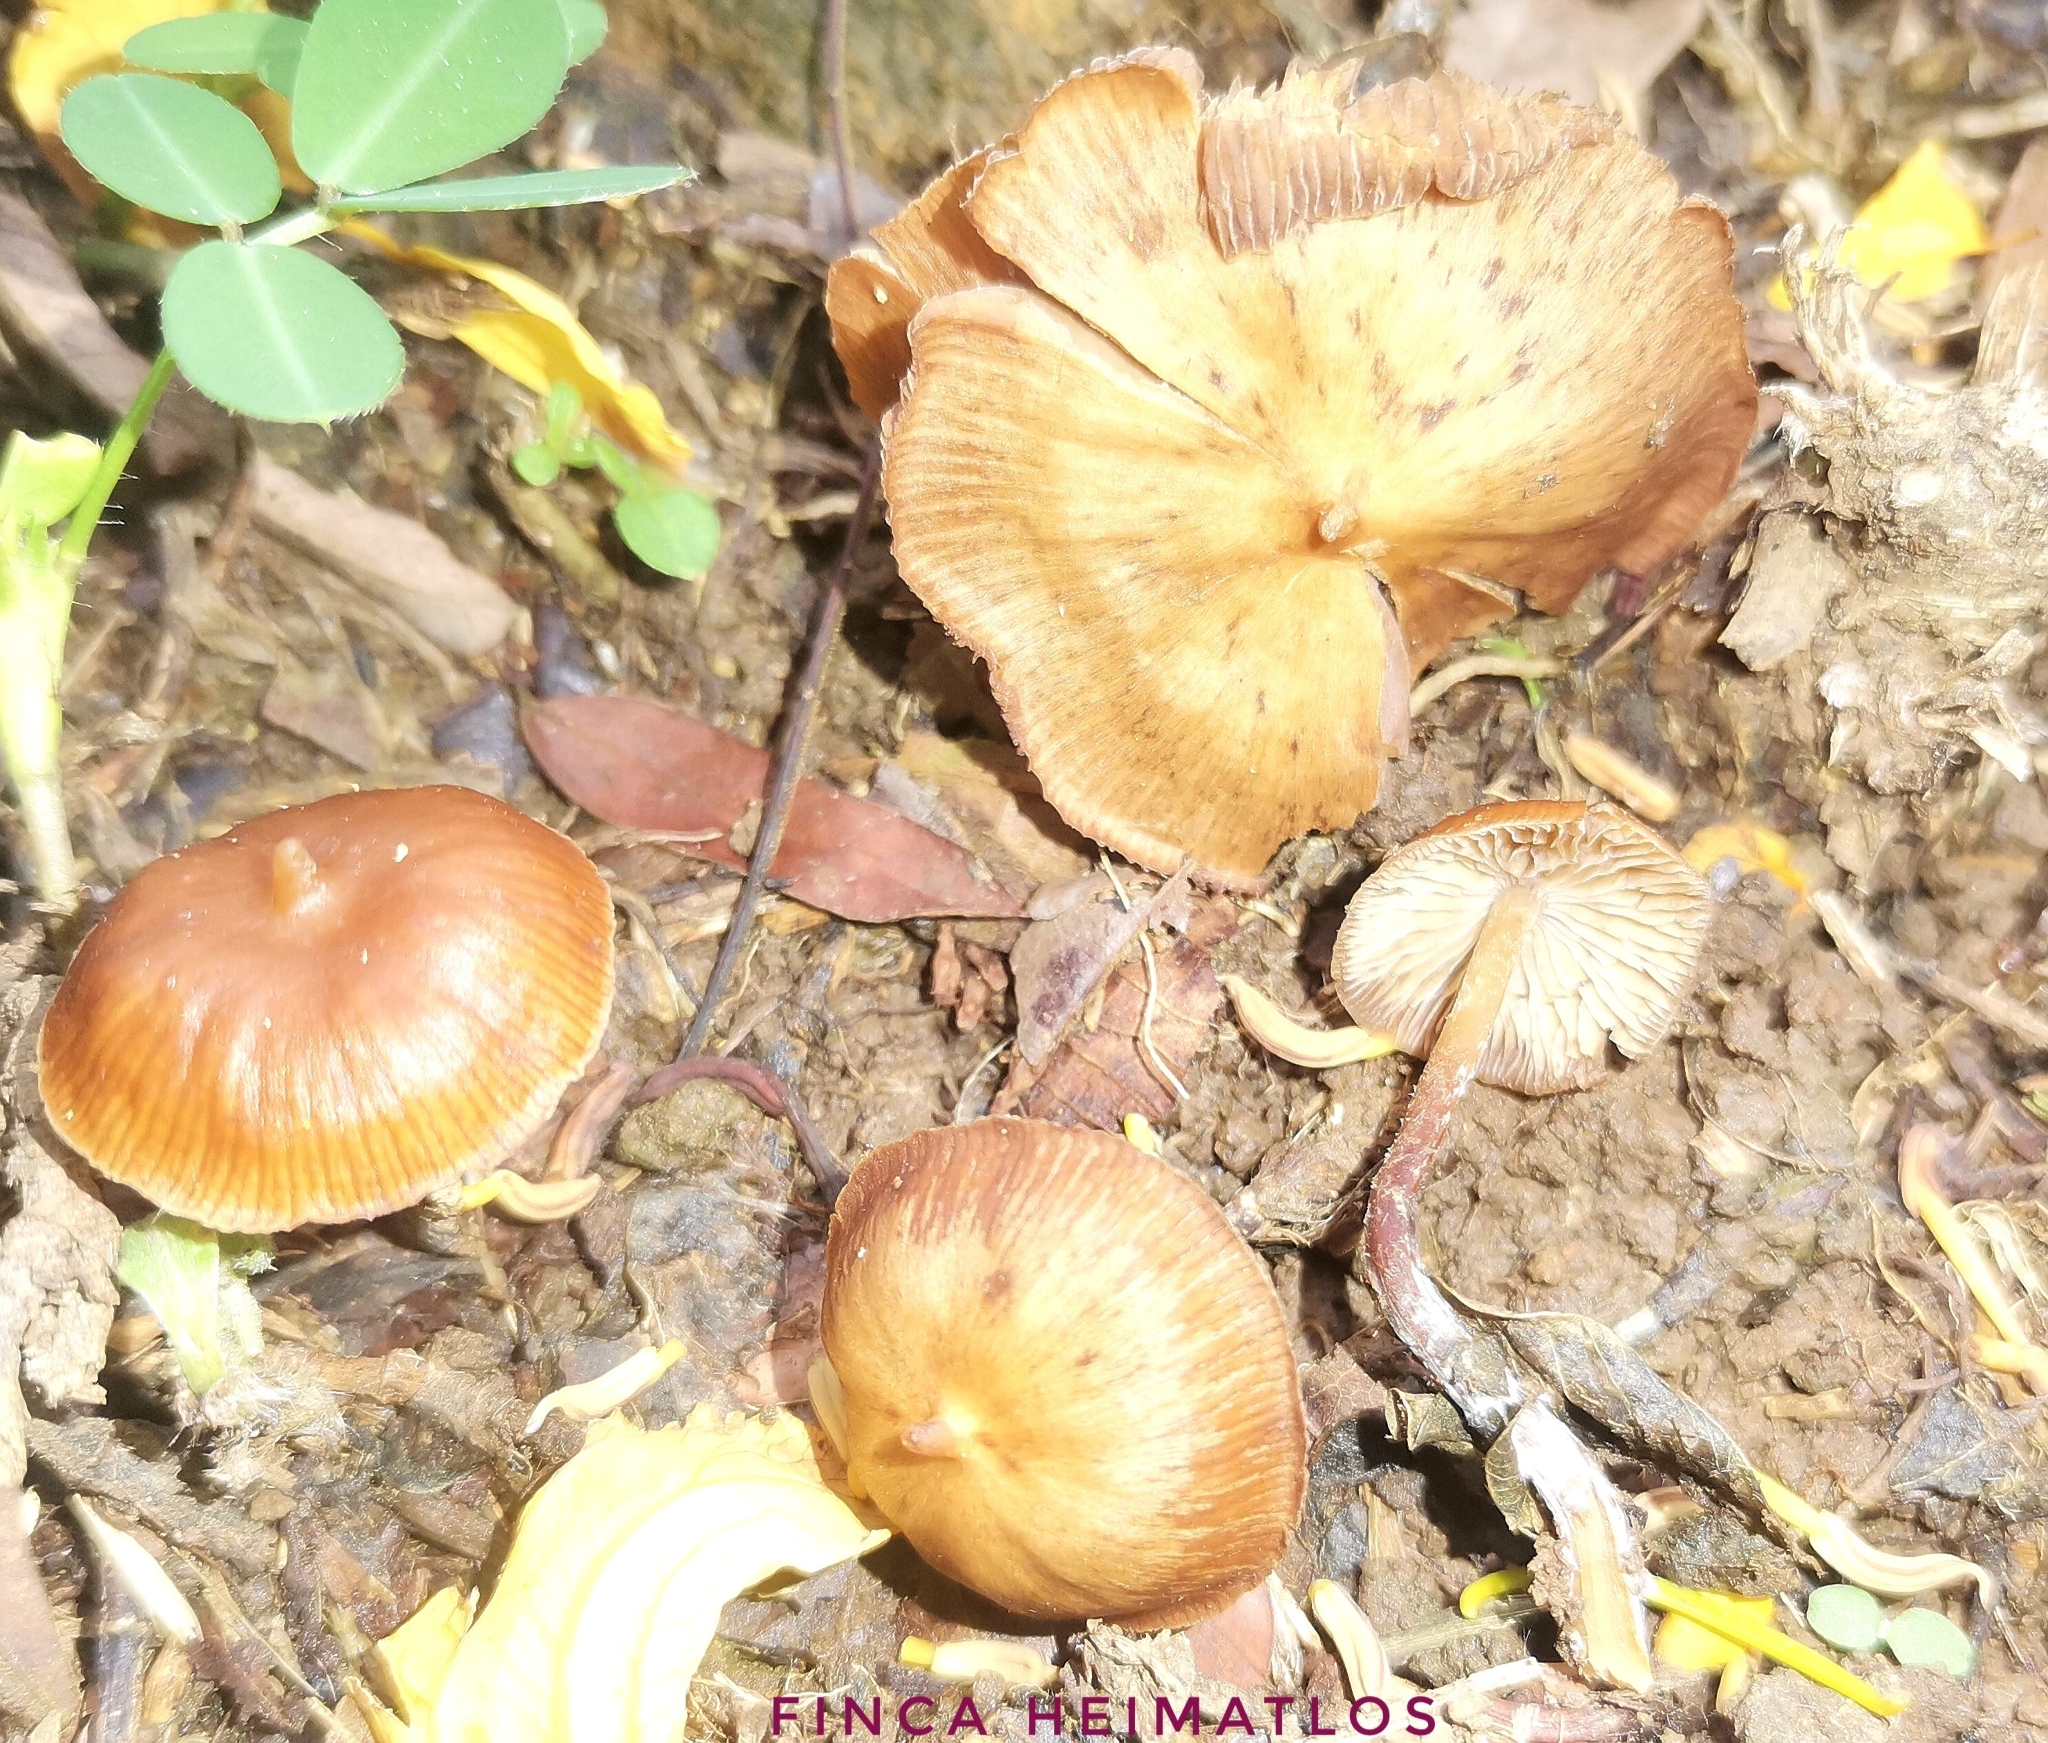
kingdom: Fungi
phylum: Basidiomycota
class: Agaricomycetes
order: Agaricales
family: Hymenogastraceae
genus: Psilocybe
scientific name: Psilocybe hoogshagenii
